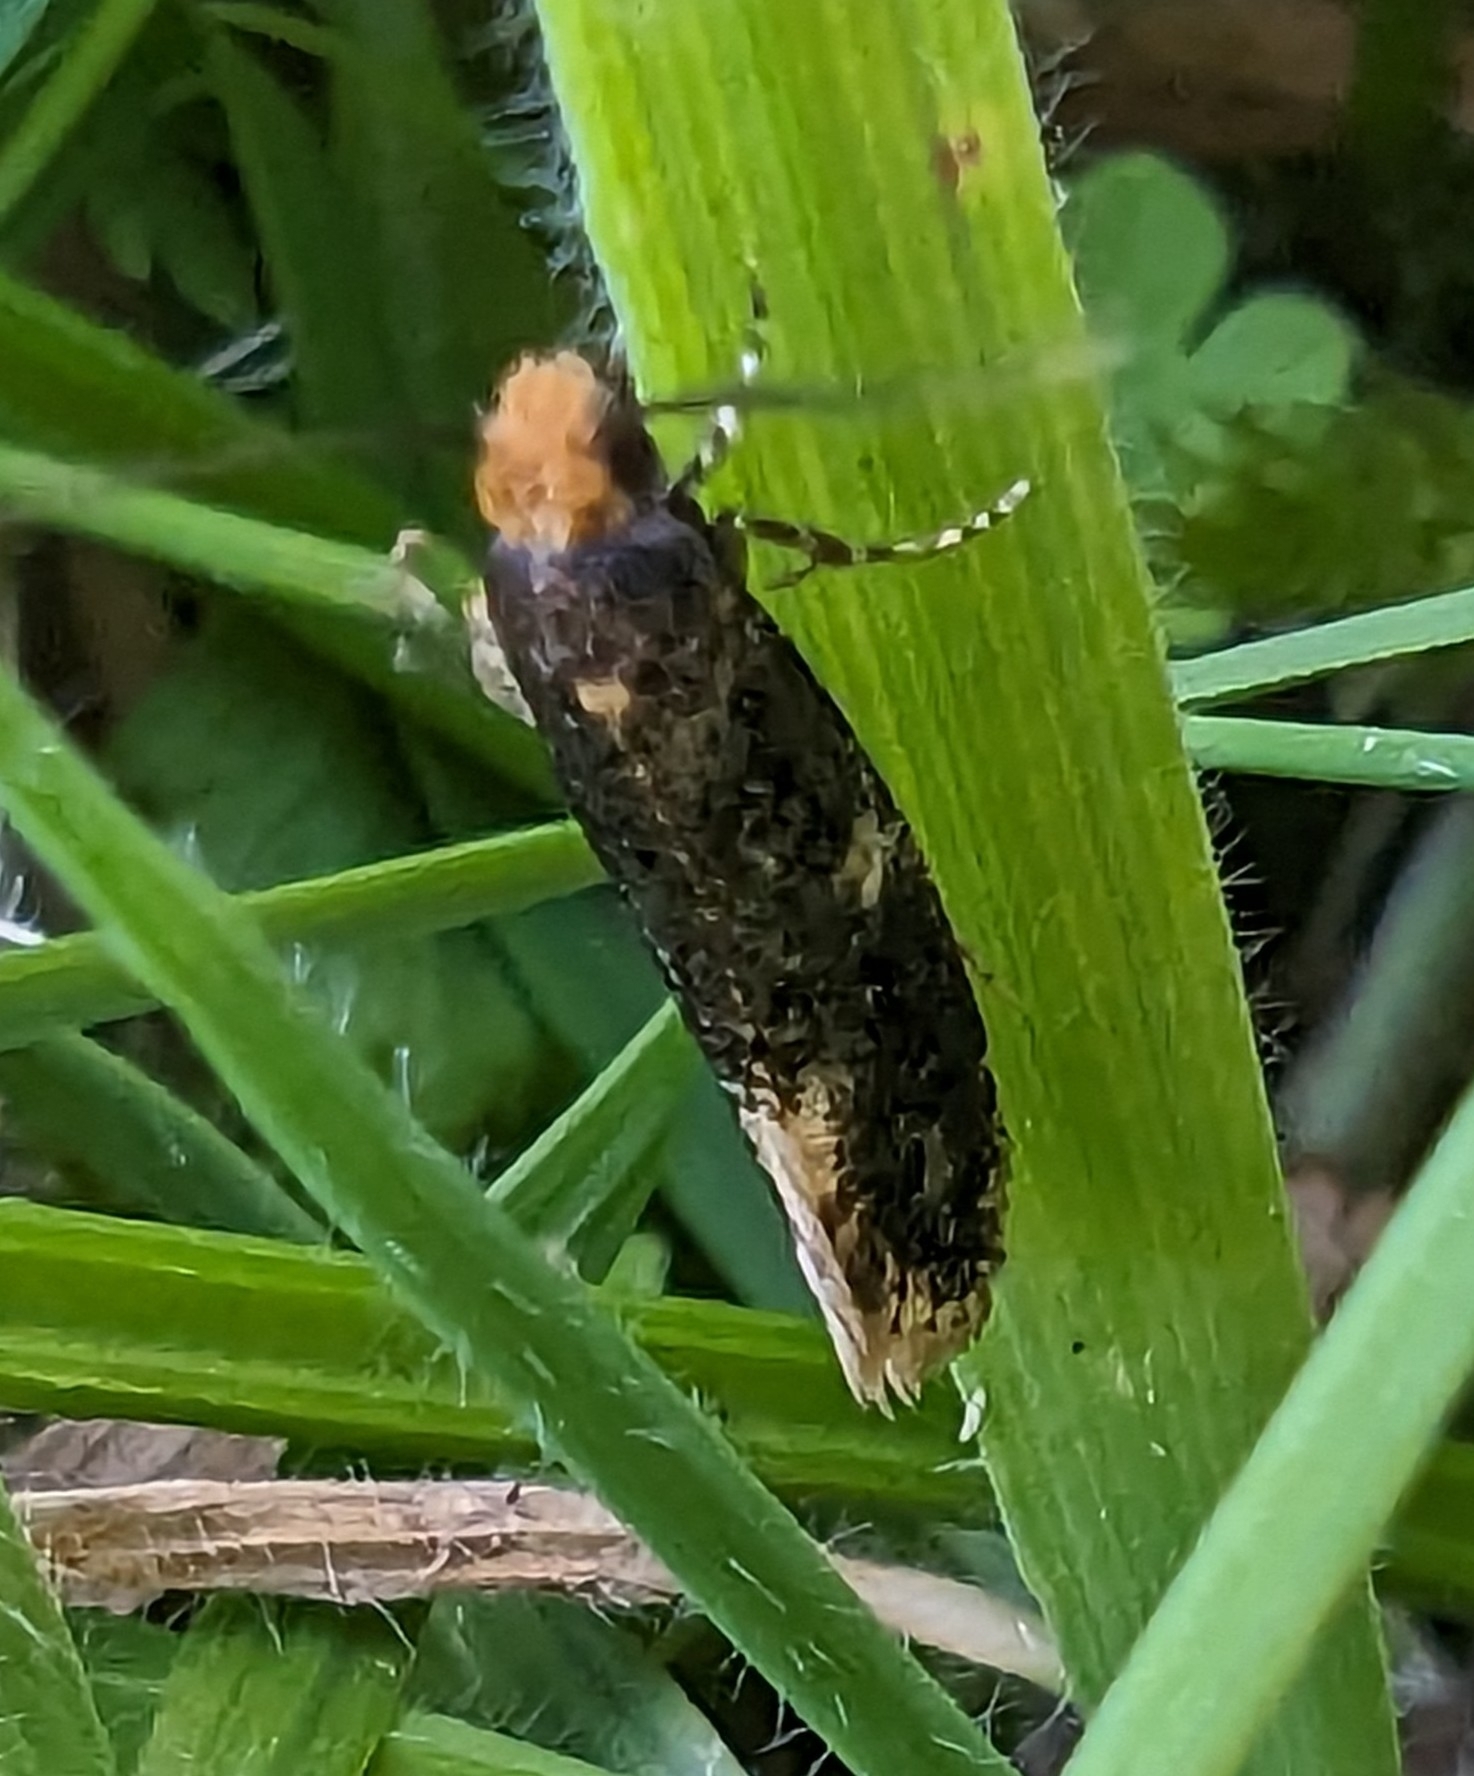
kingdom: Animalia
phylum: Arthropoda
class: Insecta
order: Lepidoptera
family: Tineidae
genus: Monopis
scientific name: Monopis weaverella
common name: Carrion moth
